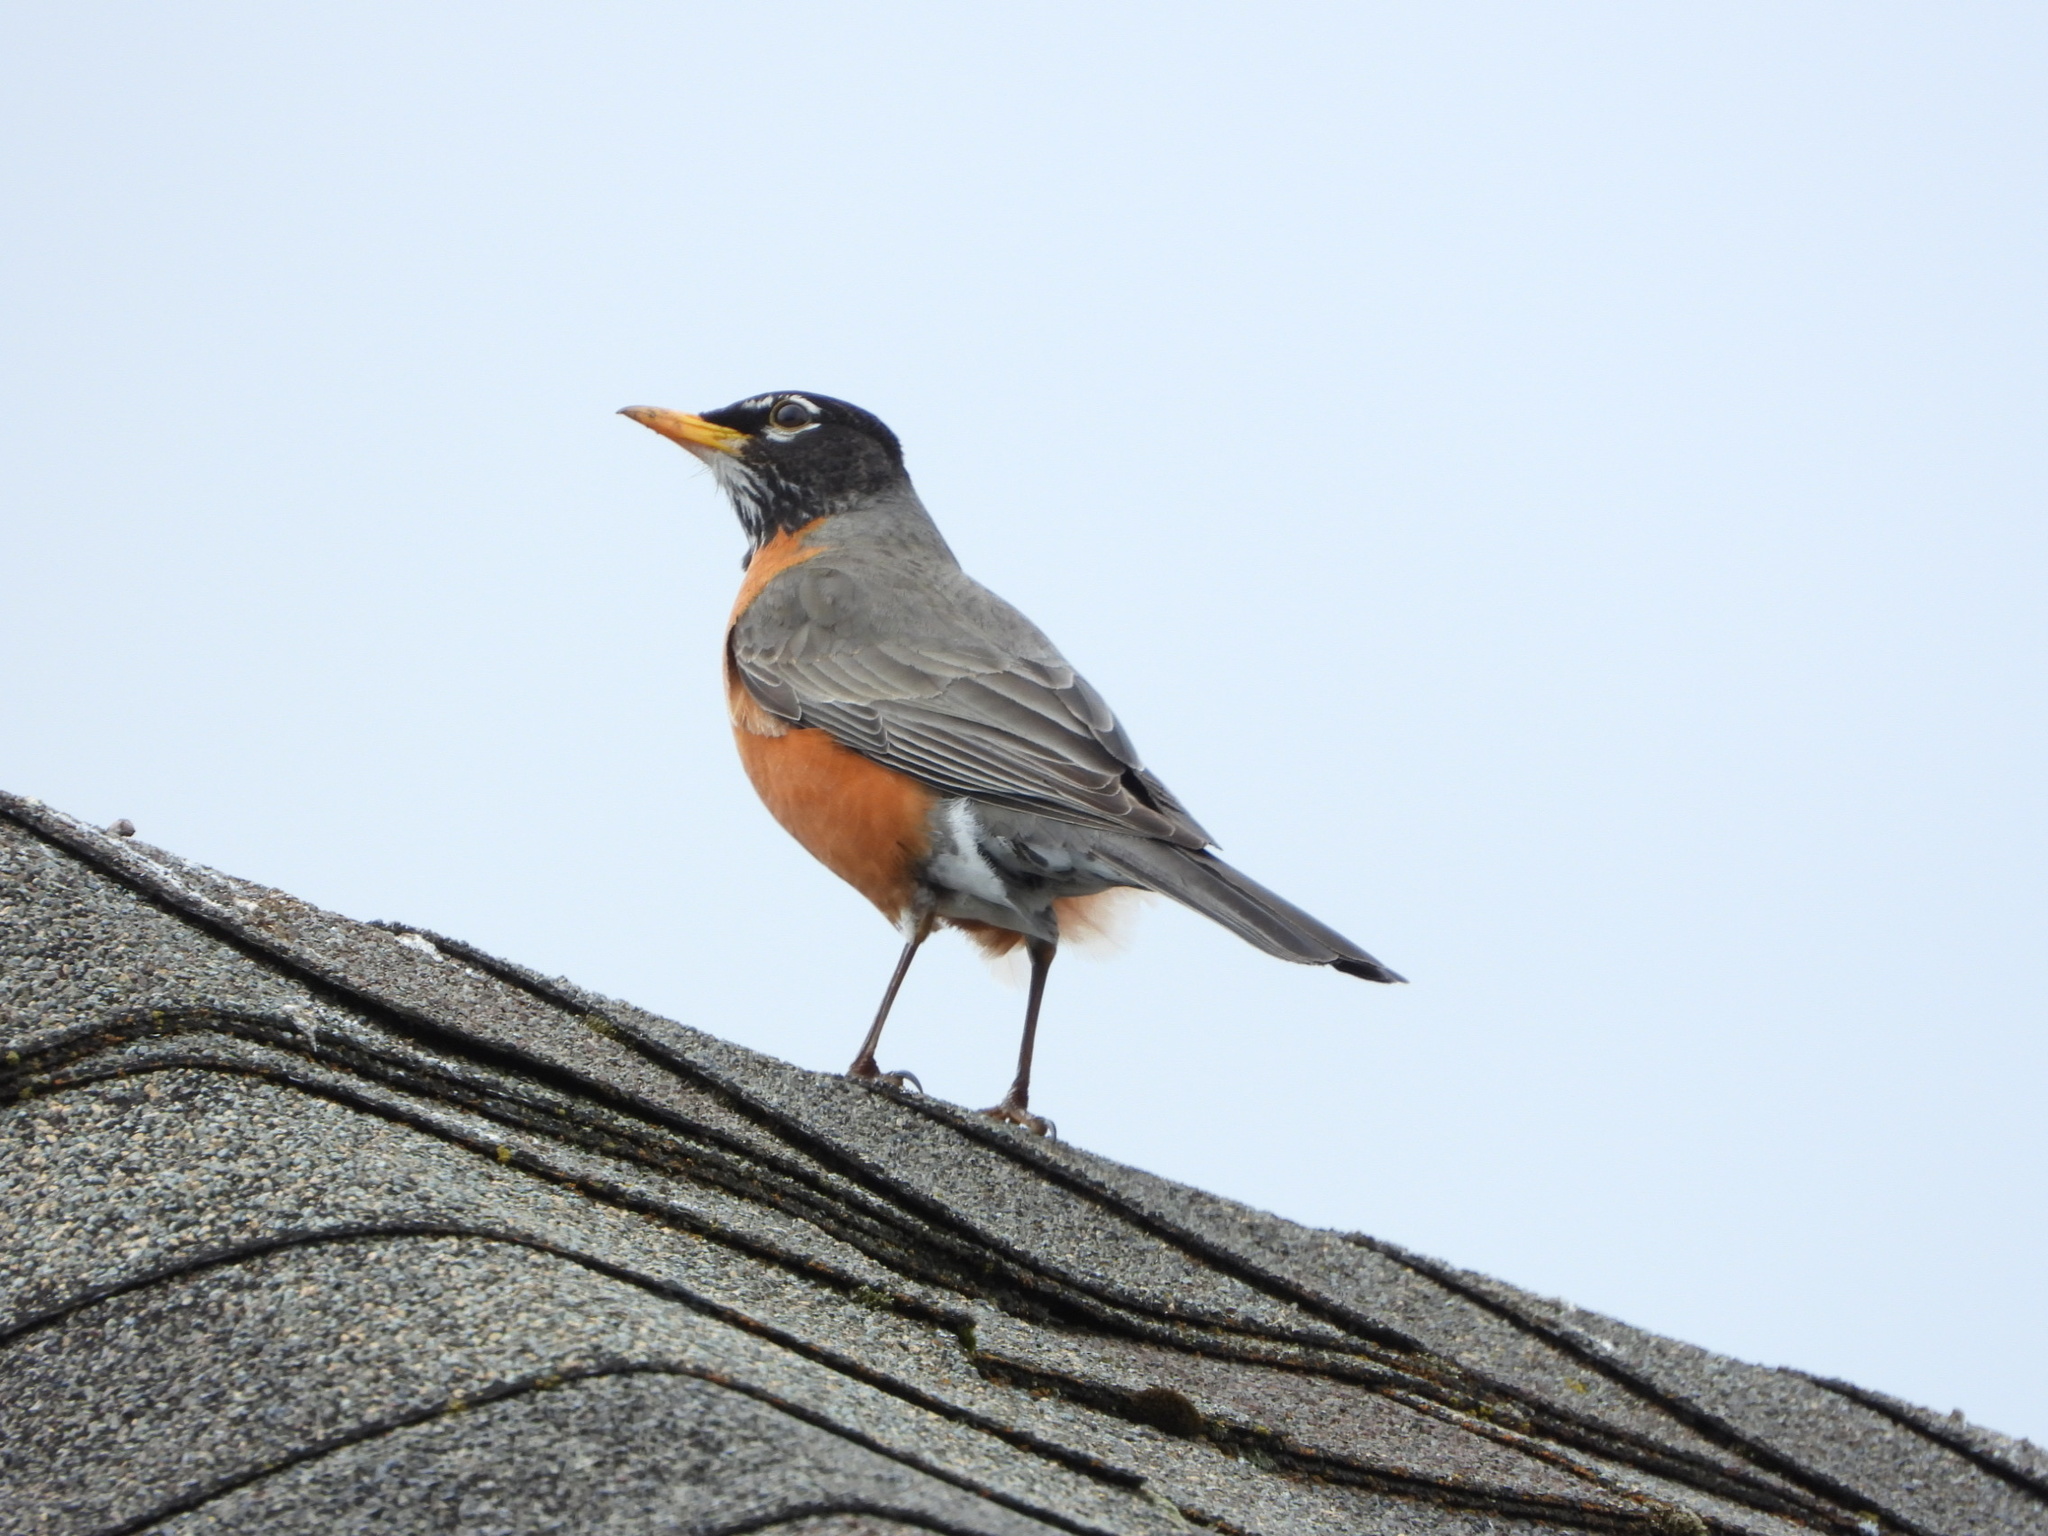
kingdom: Animalia
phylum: Chordata
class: Aves
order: Passeriformes
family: Turdidae
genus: Turdus
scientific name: Turdus migratorius
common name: American robin
